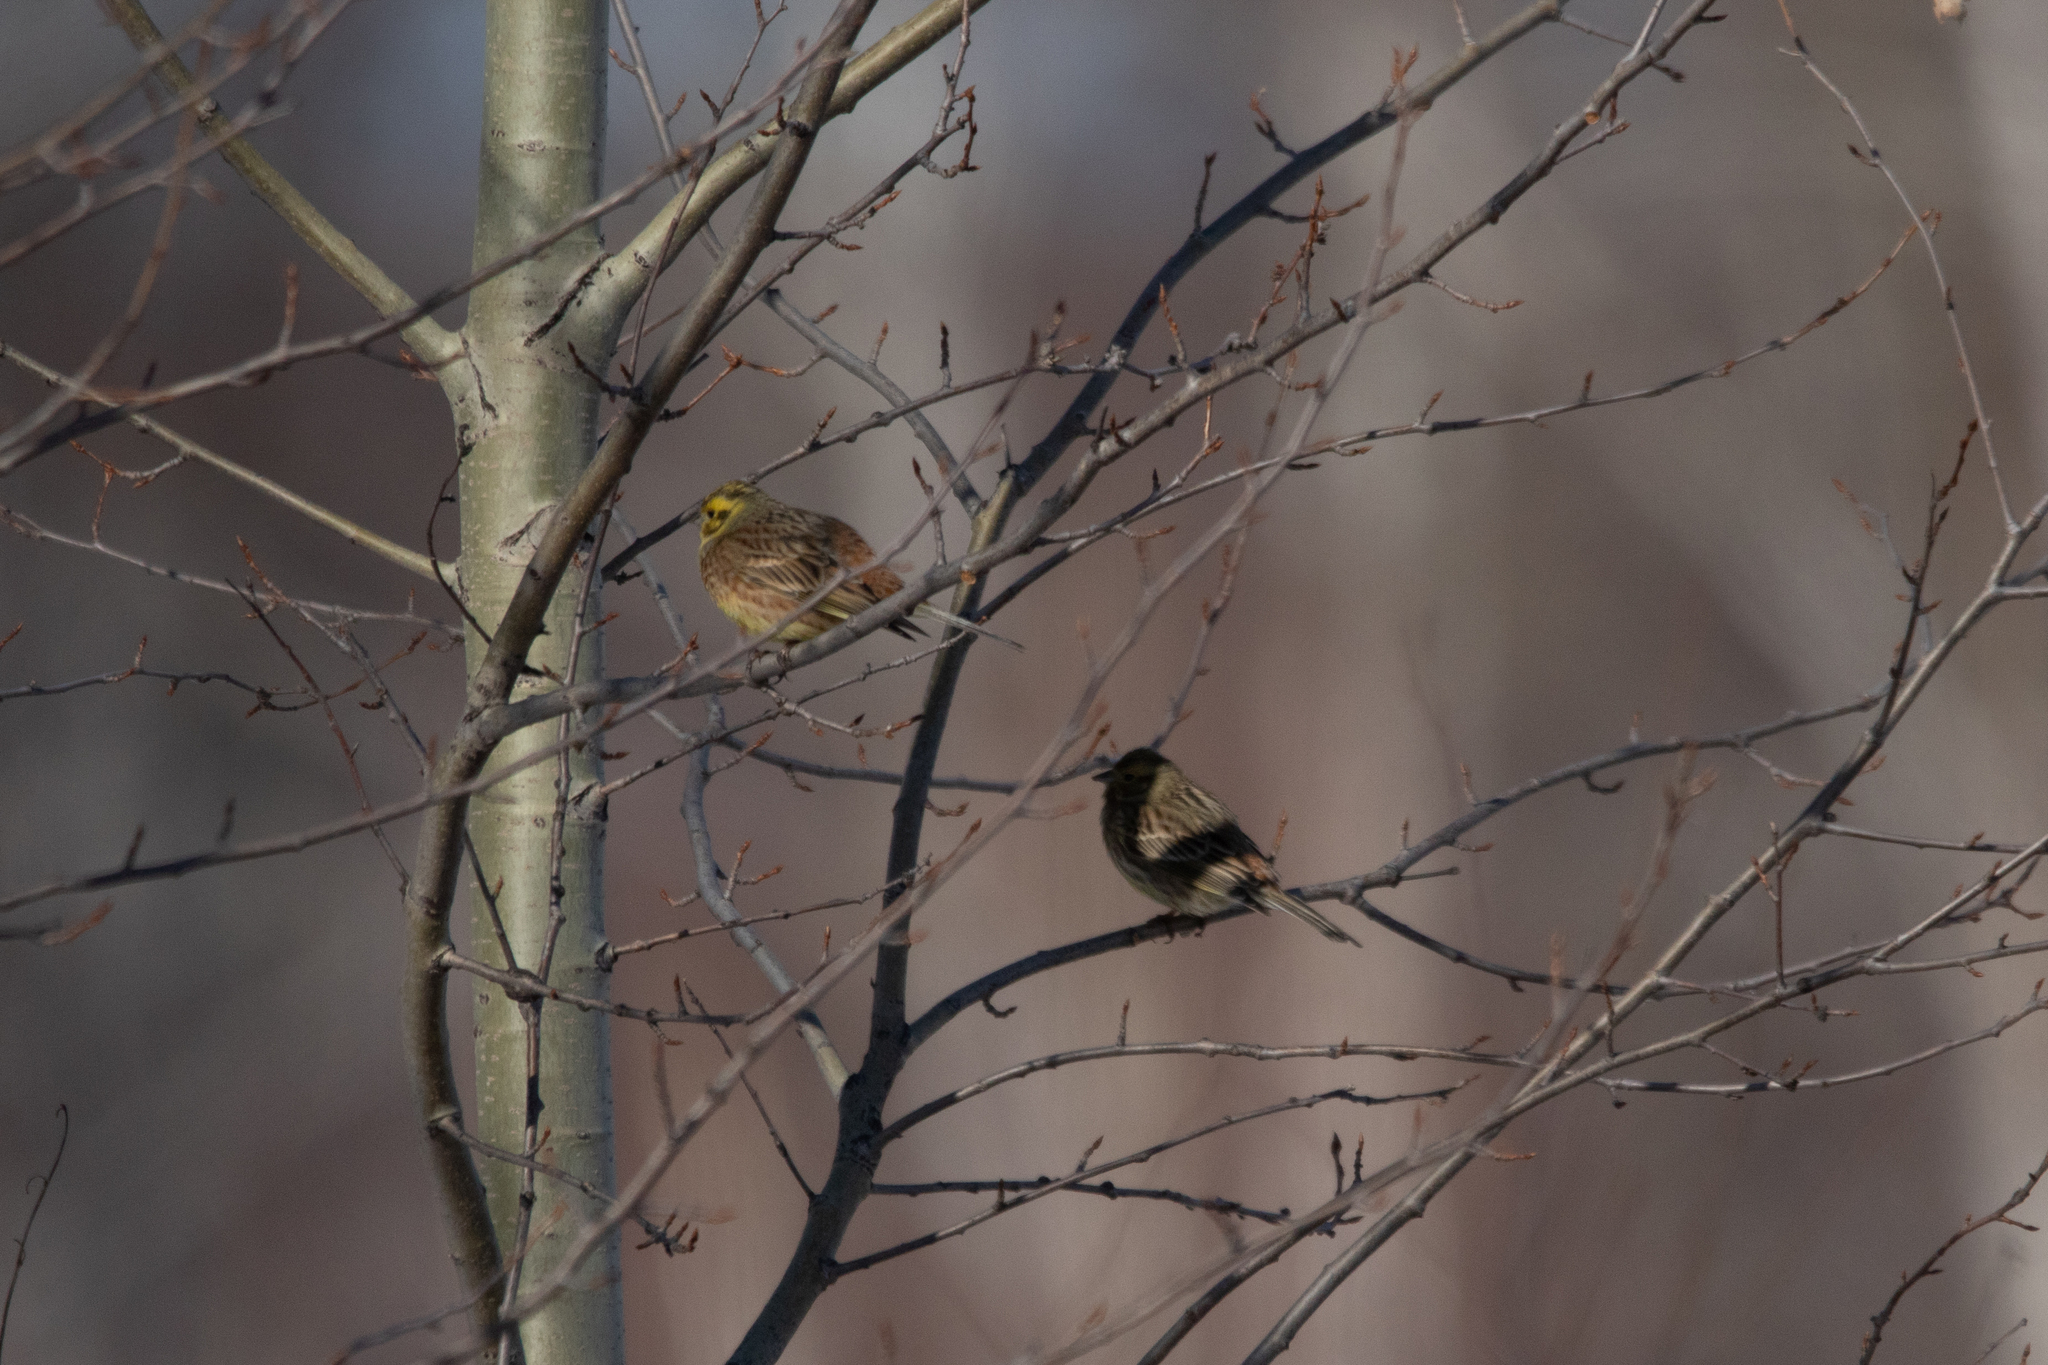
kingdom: Animalia
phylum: Chordata
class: Aves
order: Passeriformes
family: Emberizidae
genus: Emberiza
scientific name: Emberiza citrinella
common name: Yellowhammer
